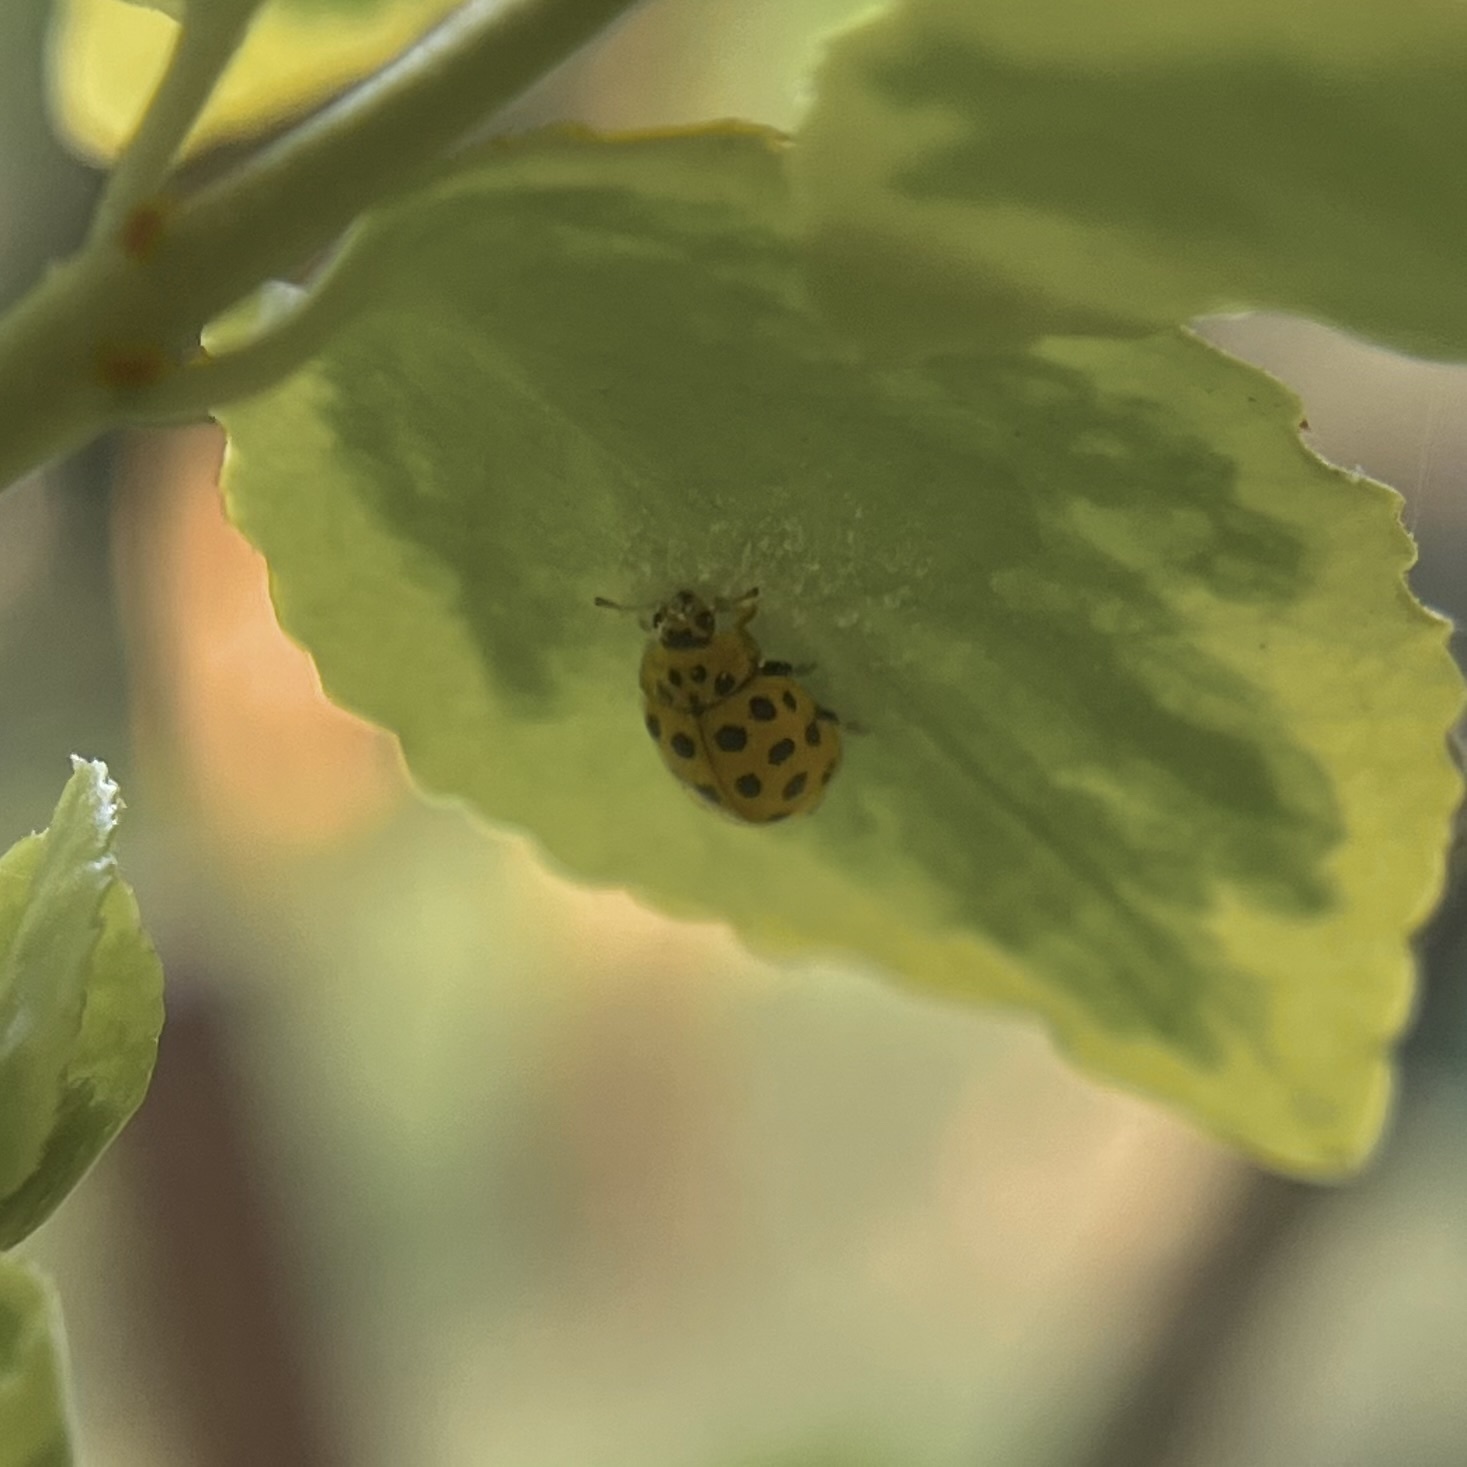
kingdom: Animalia
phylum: Arthropoda
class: Insecta
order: Coleoptera
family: Coccinellidae
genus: Psyllobora
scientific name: Psyllobora vigintiduopunctata
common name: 22-spot ladybird
